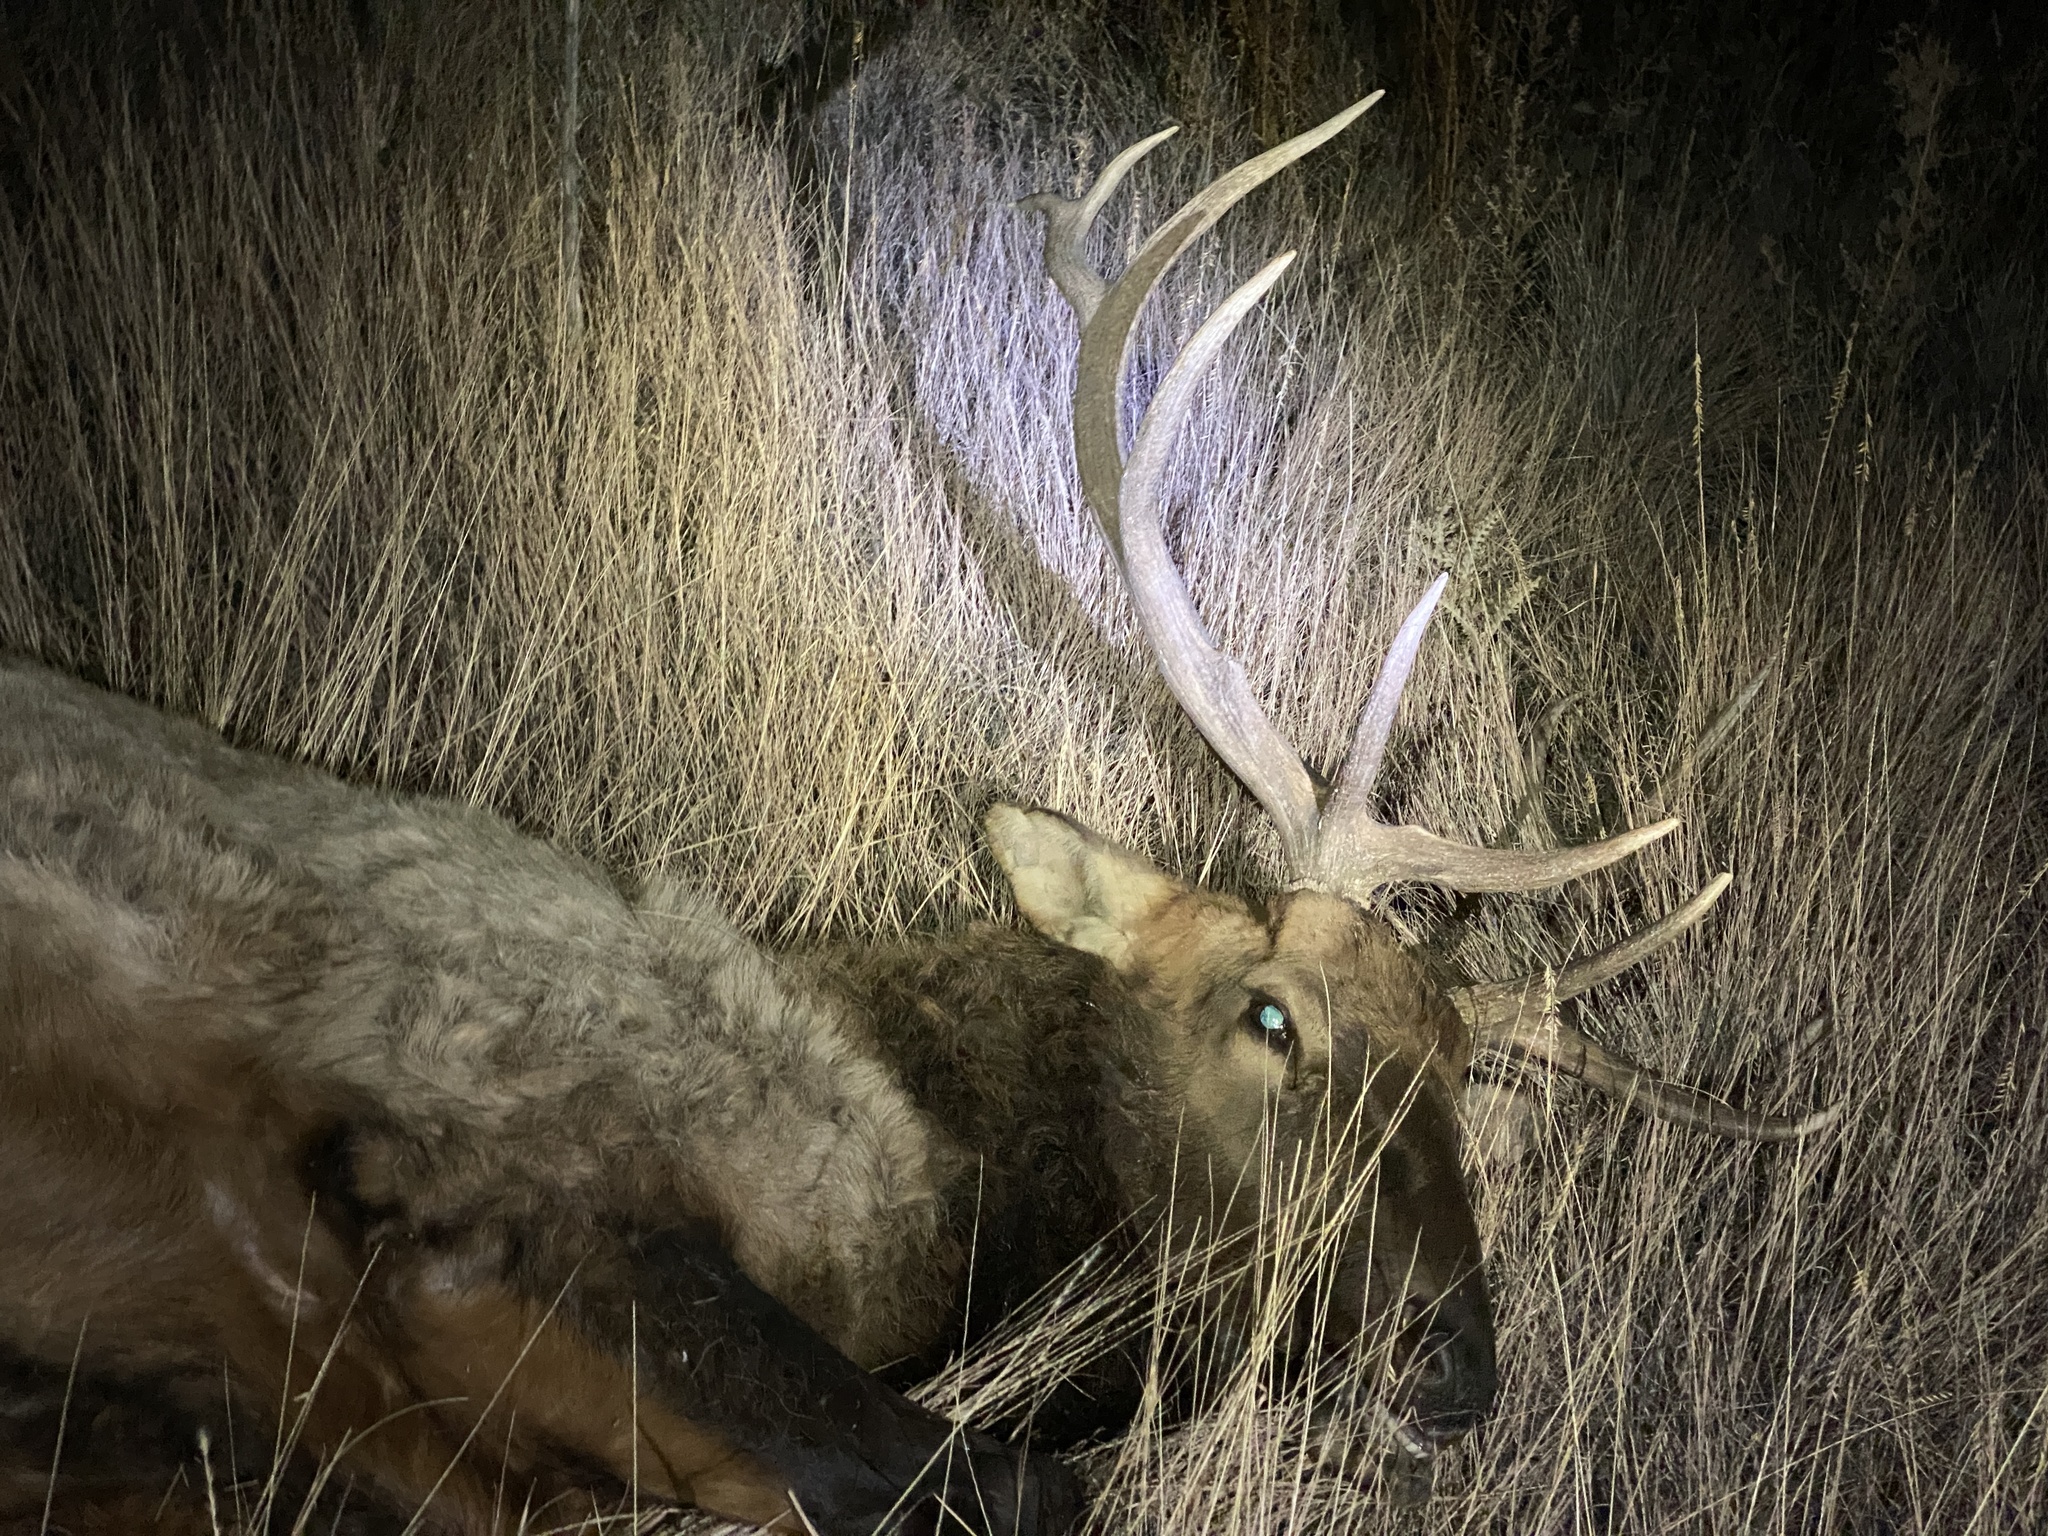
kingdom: Animalia
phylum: Chordata
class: Mammalia
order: Artiodactyla
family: Cervidae
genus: Cervus
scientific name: Cervus elaphus
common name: Red deer
